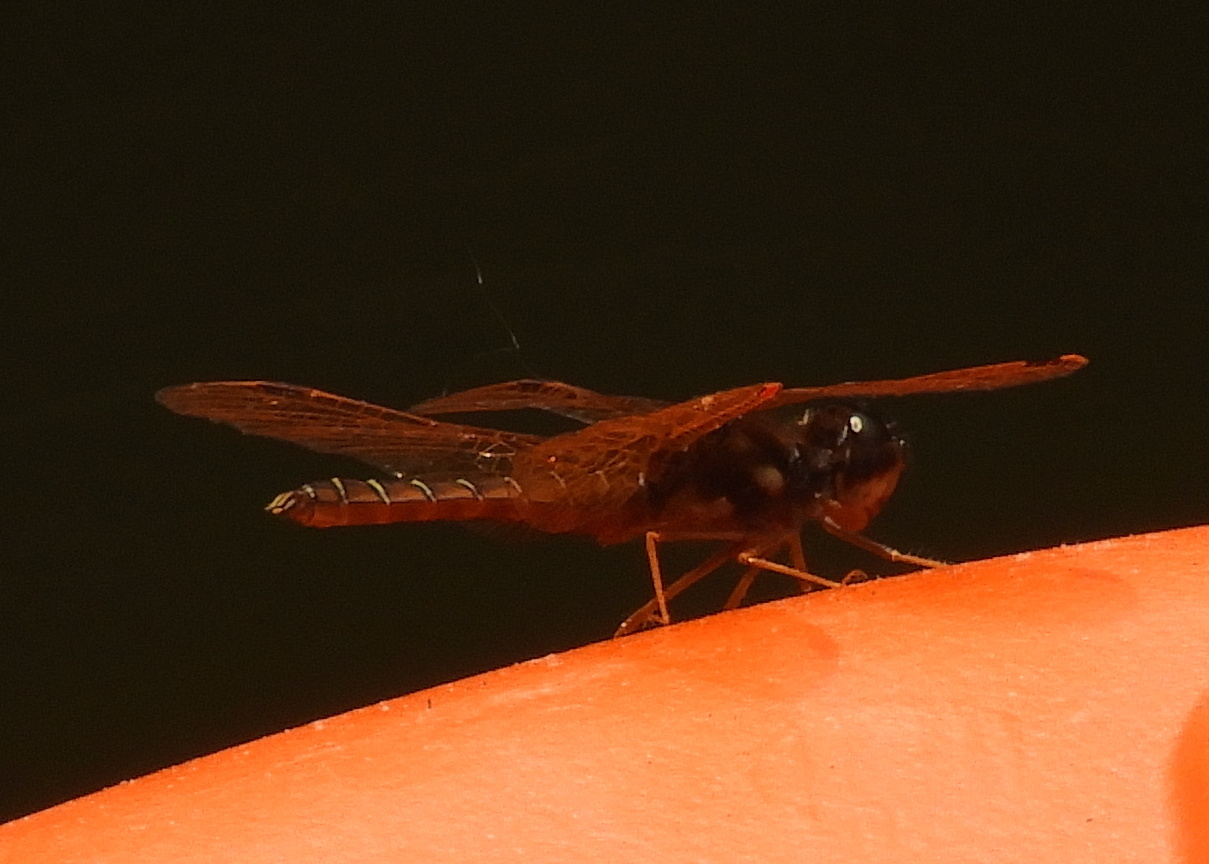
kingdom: Animalia
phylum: Arthropoda
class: Insecta
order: Odonata
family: Libellulidae
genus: Perithemis
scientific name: Perithemis tenera
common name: Eastern amberwing
